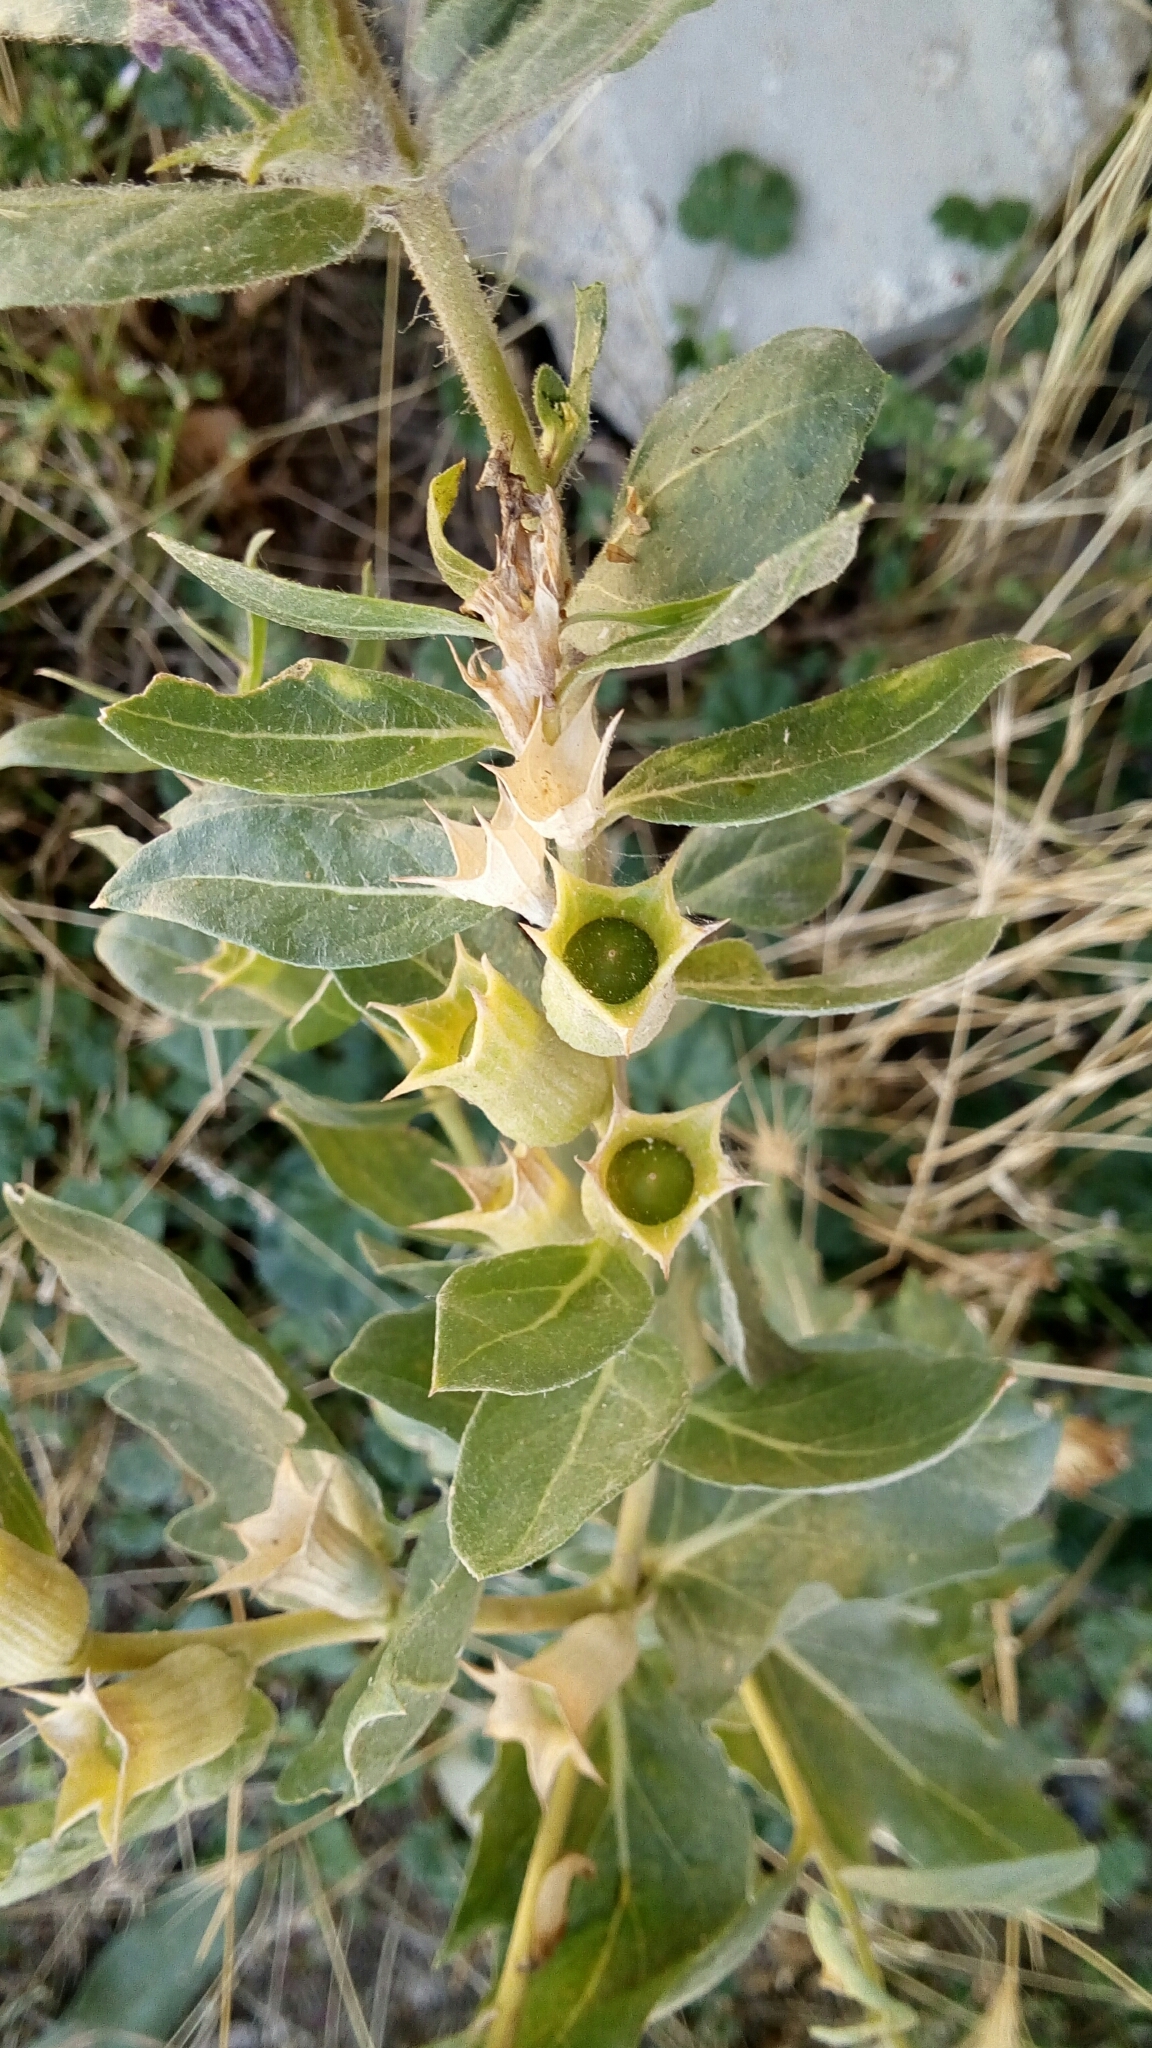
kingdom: Plantae
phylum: Tracheophyta
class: Magnoliopsida
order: Solanales
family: Solanaceae
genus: Hyoscyamus
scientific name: Hyoscyamus niger
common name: Henbane
